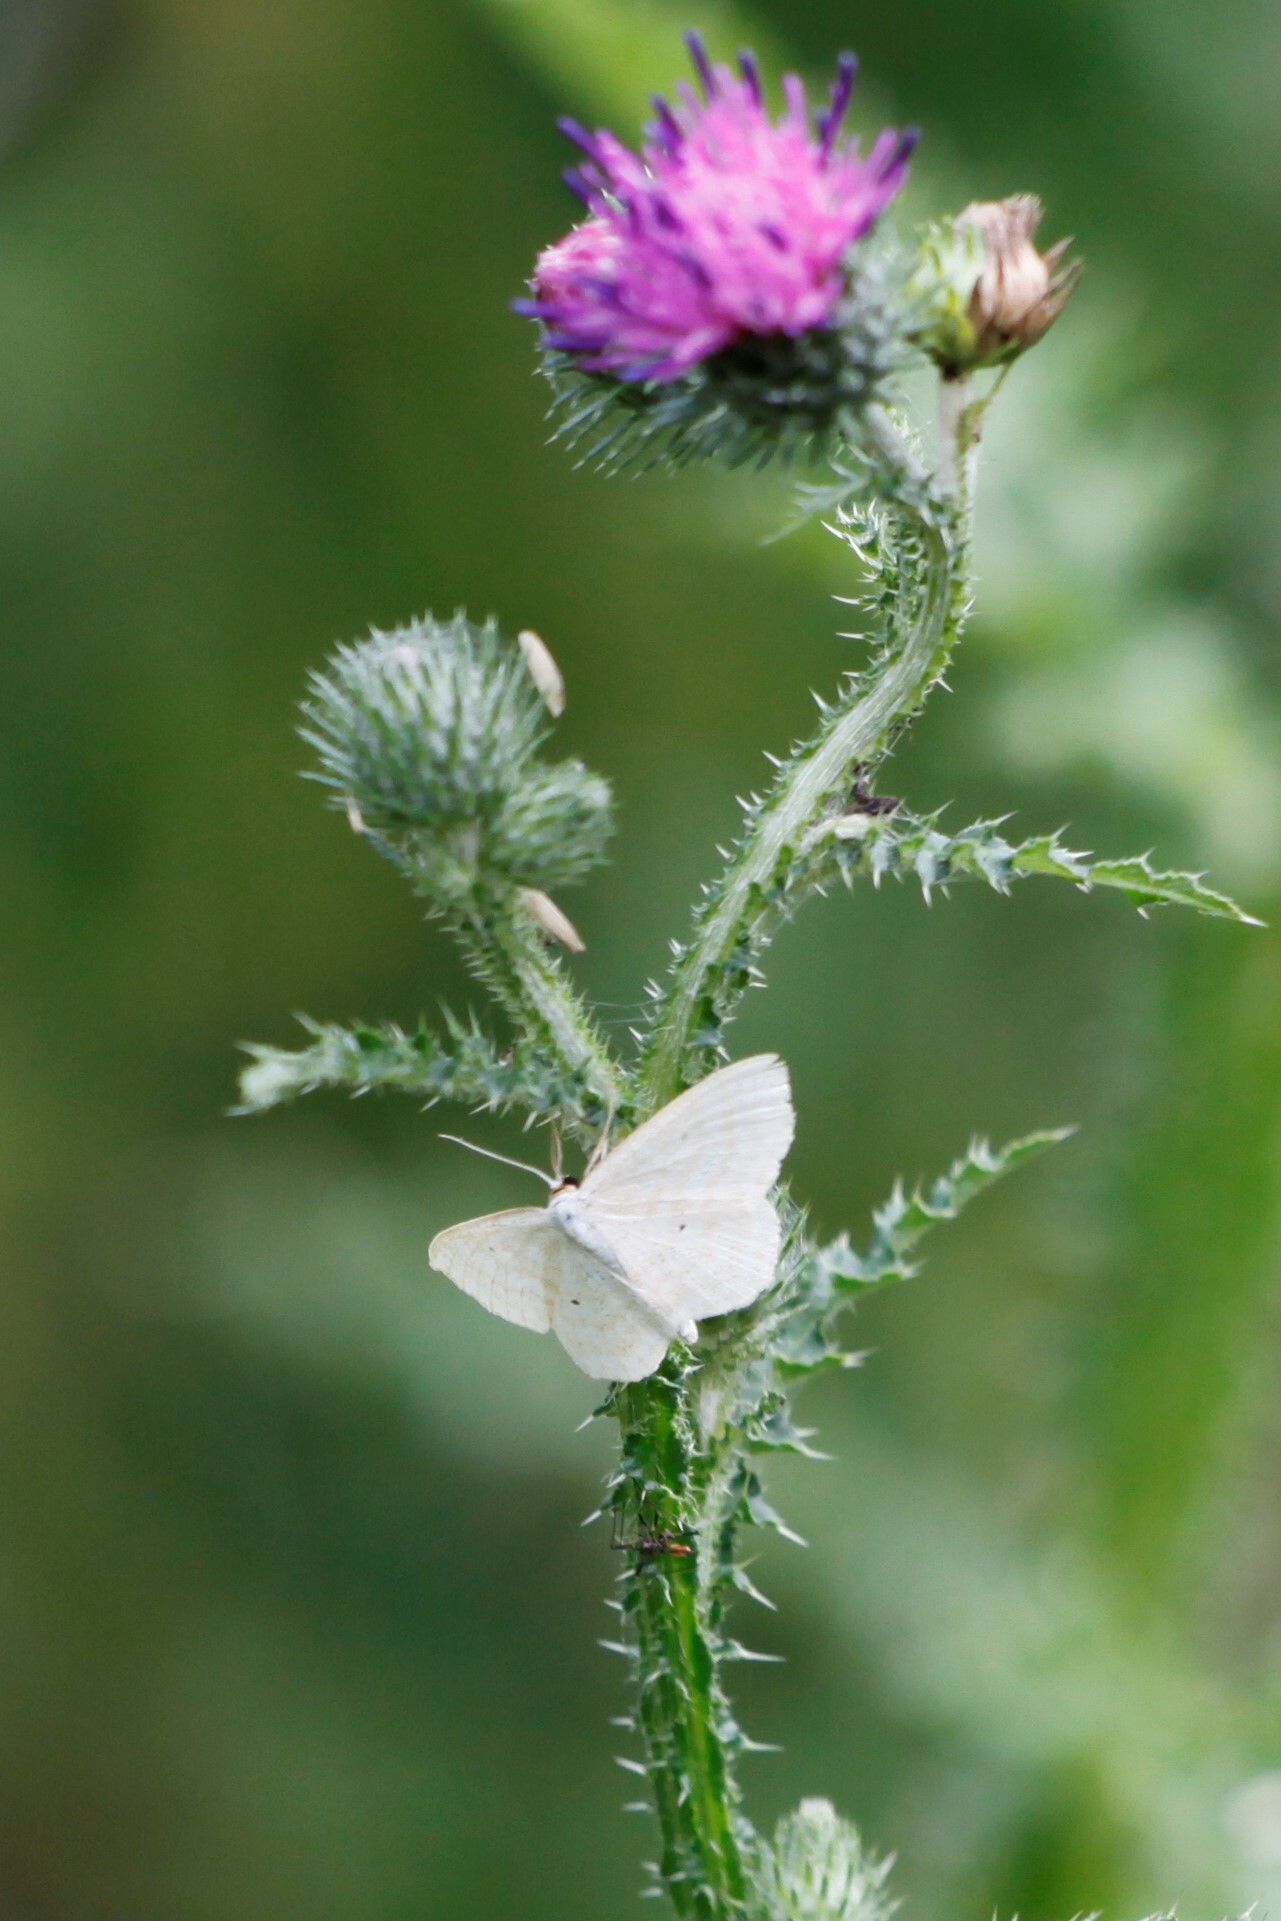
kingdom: Animalia
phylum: Arthropoda
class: Insecta
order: Lepidoptera
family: Geometridae
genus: Scopula
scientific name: Scopula immutata
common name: Lesser cream wave
